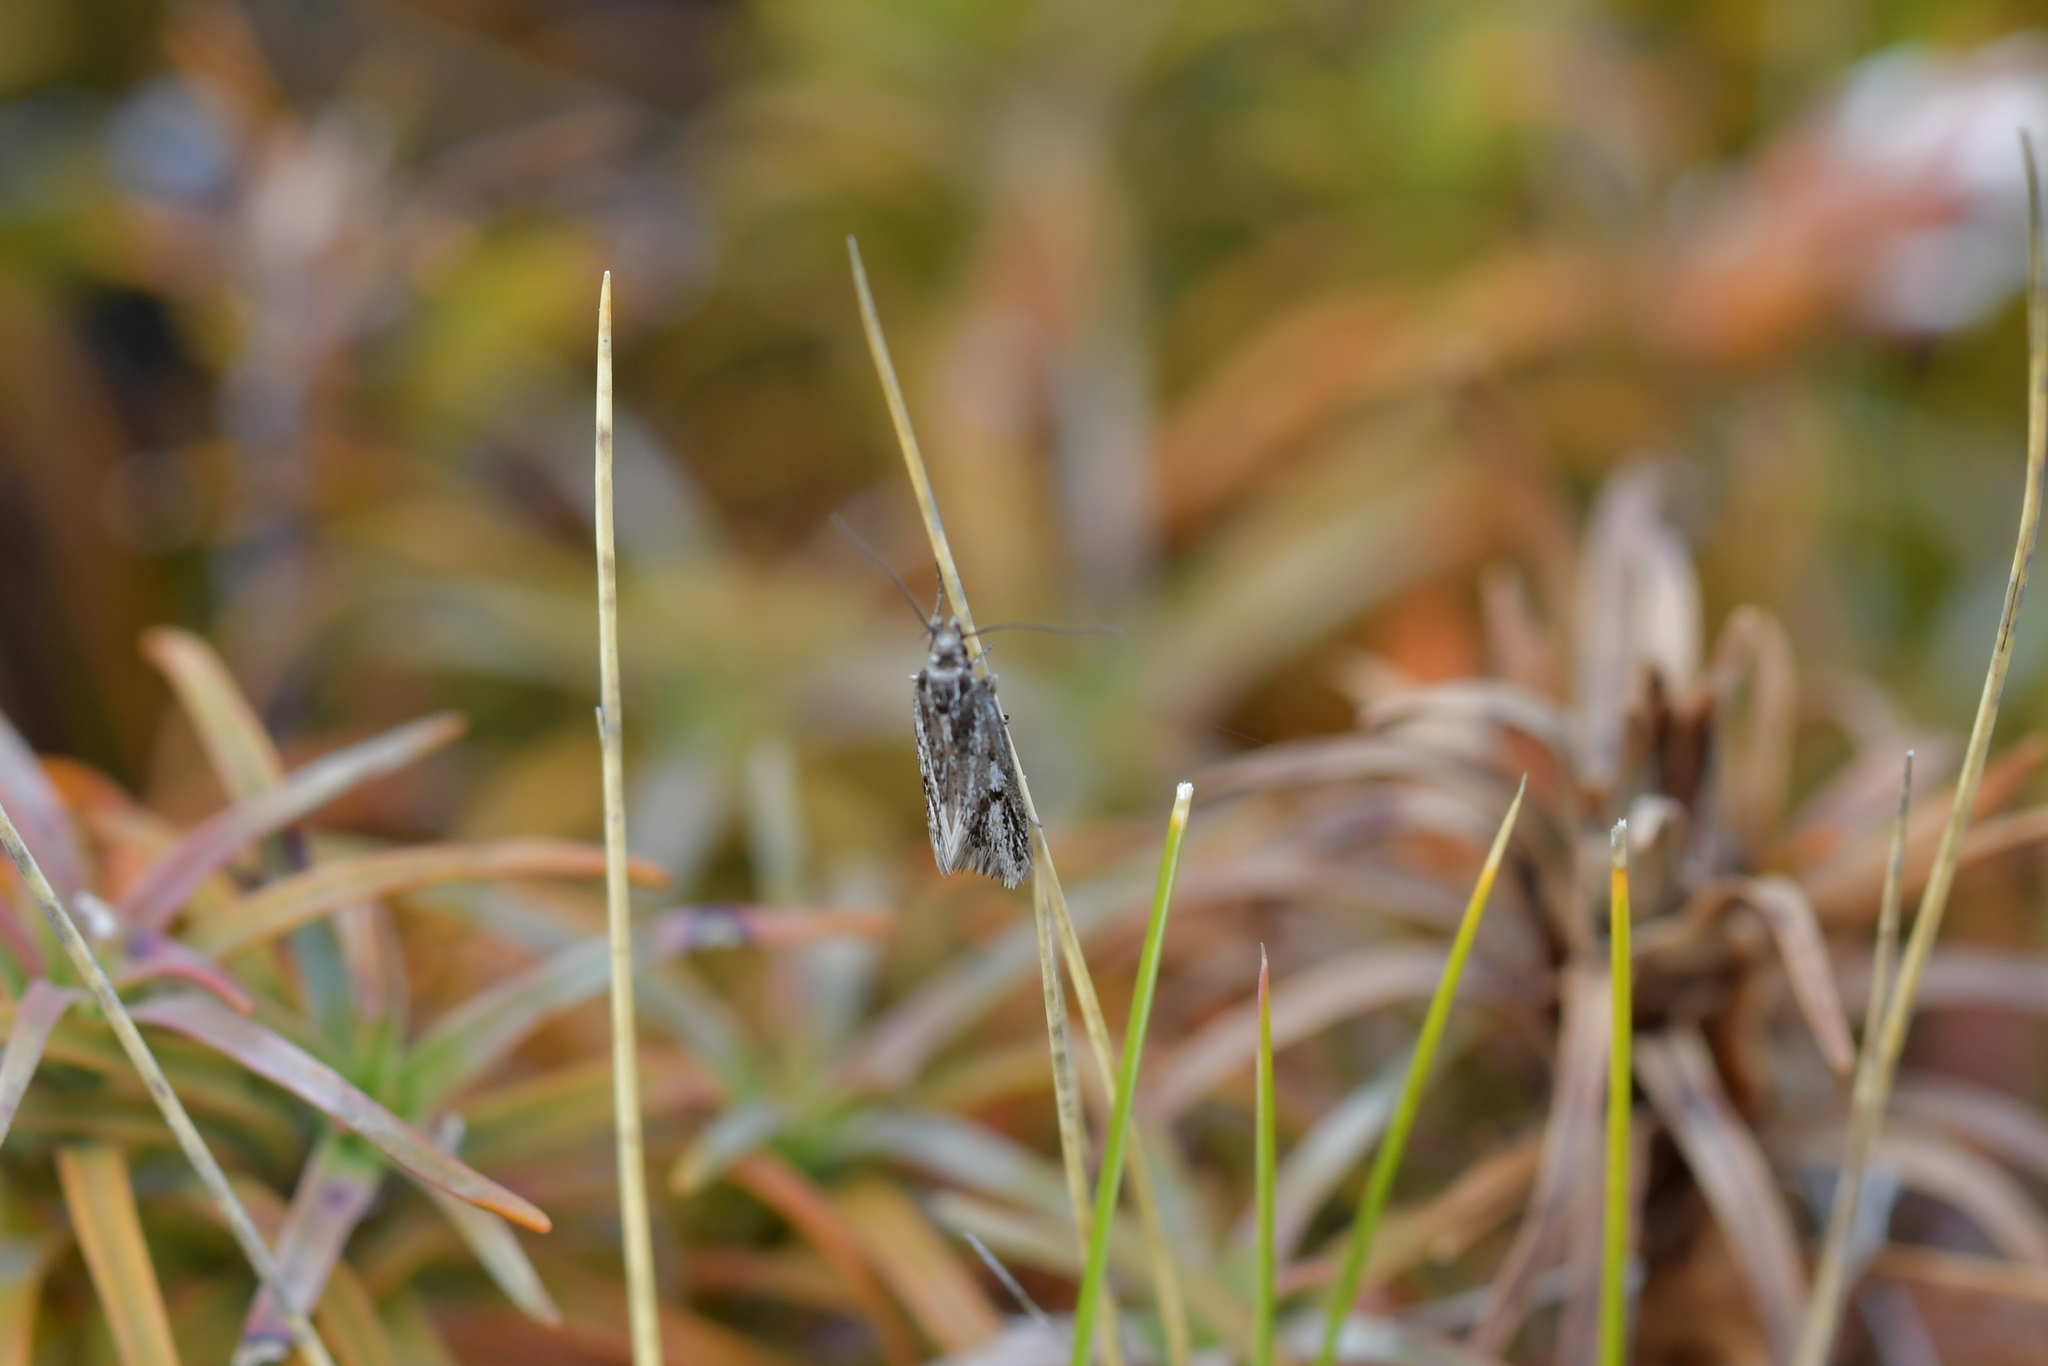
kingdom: Animalia
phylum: Arthropoda
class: Insecta
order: Lepidoptera
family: Oecophoridae
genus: Prepalla
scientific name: Prepalla
